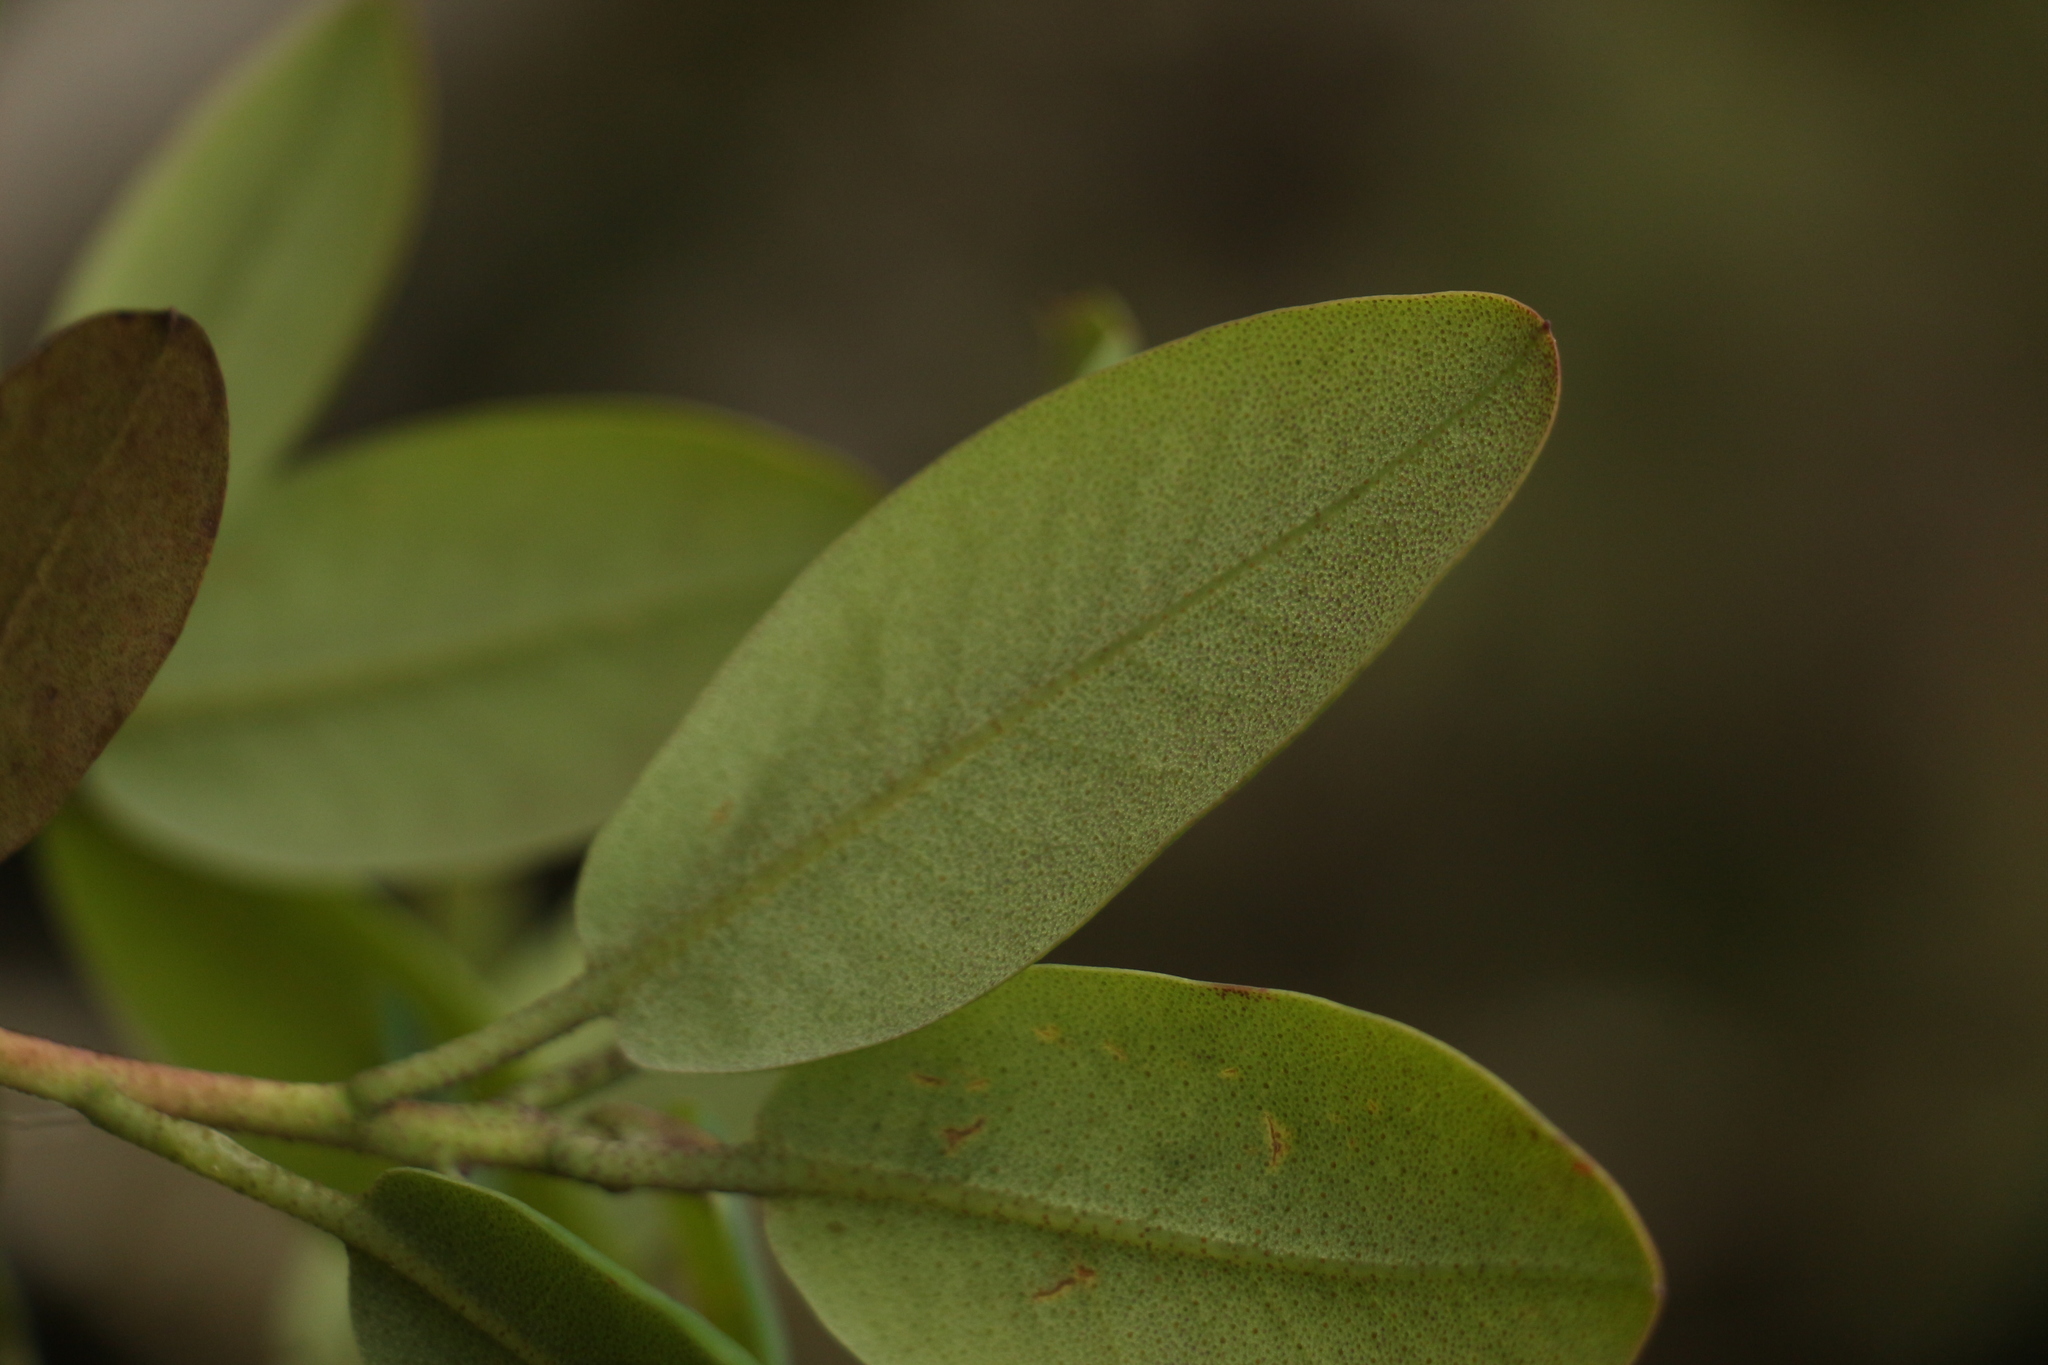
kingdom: Plantae
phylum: Tracheophyta
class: Magnoliopsida
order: Ericales
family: Ericaceae
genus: Rhododendron
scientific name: Rhododendron cinnabarinum
